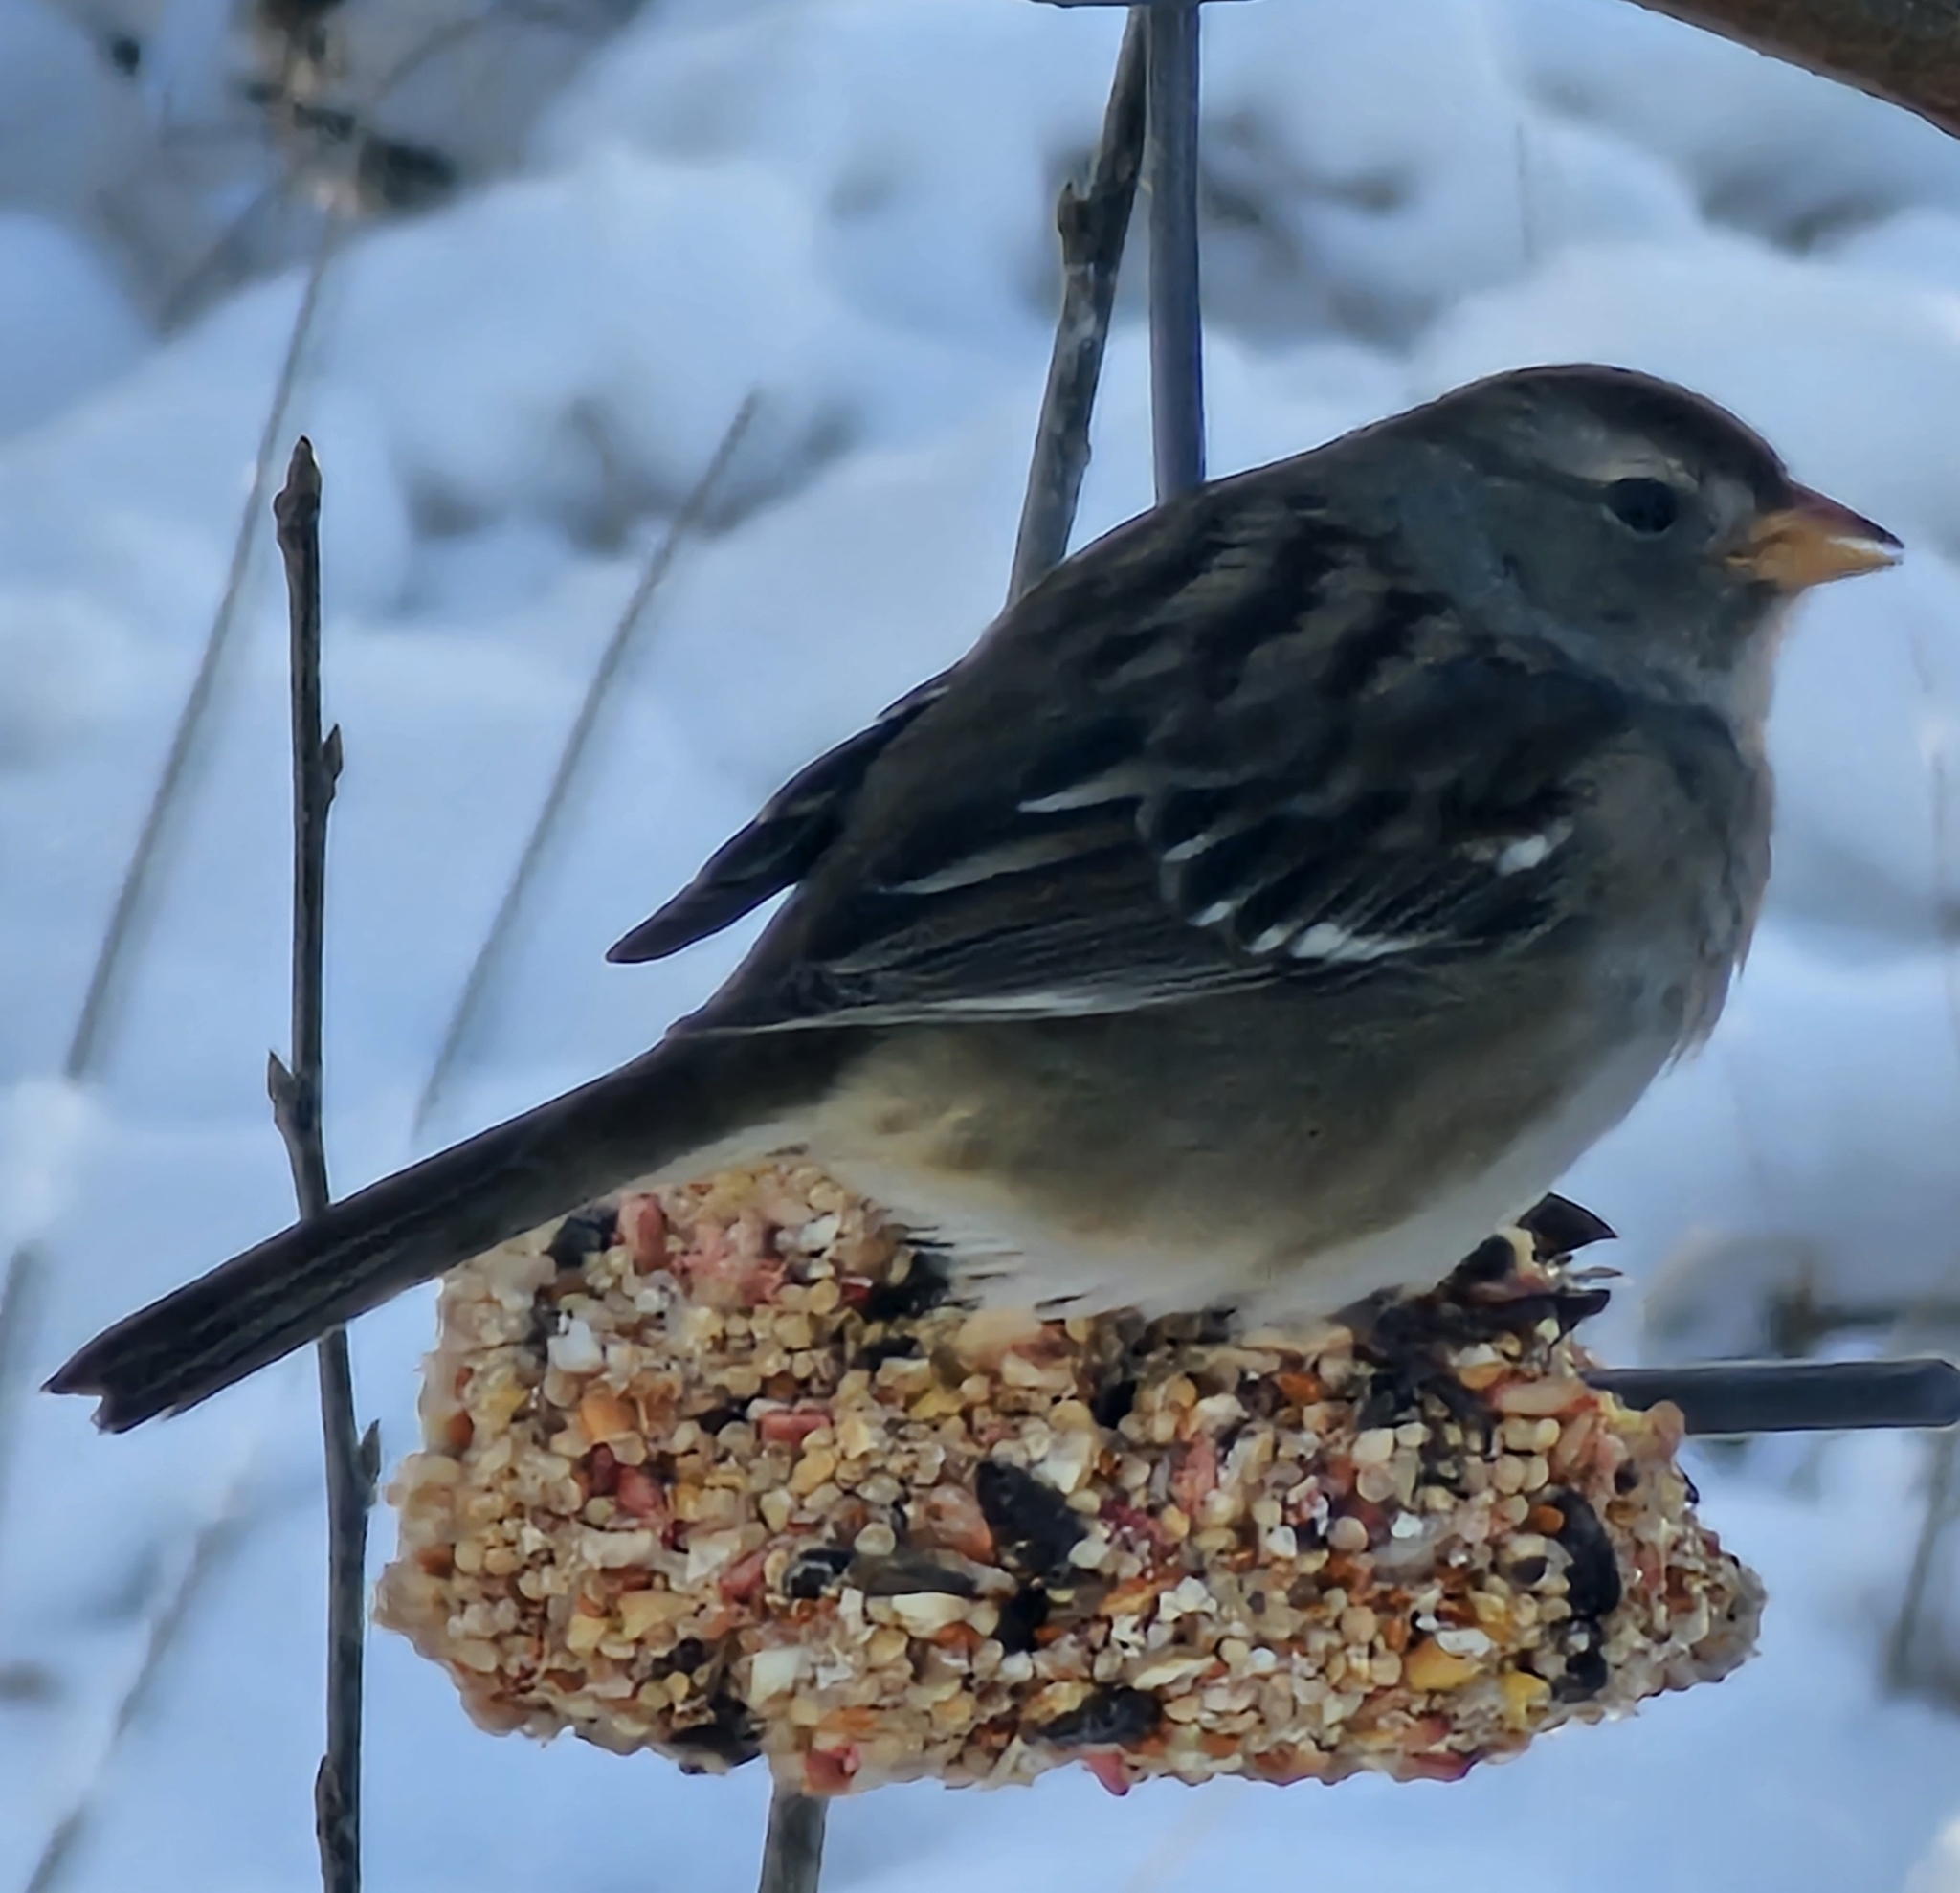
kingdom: Animalia
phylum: Chordata
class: Aves
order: Passeriformes
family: Passerellidae
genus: Zonotrichia
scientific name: Zonotrichia leucophrys
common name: White-crowned sparrow
